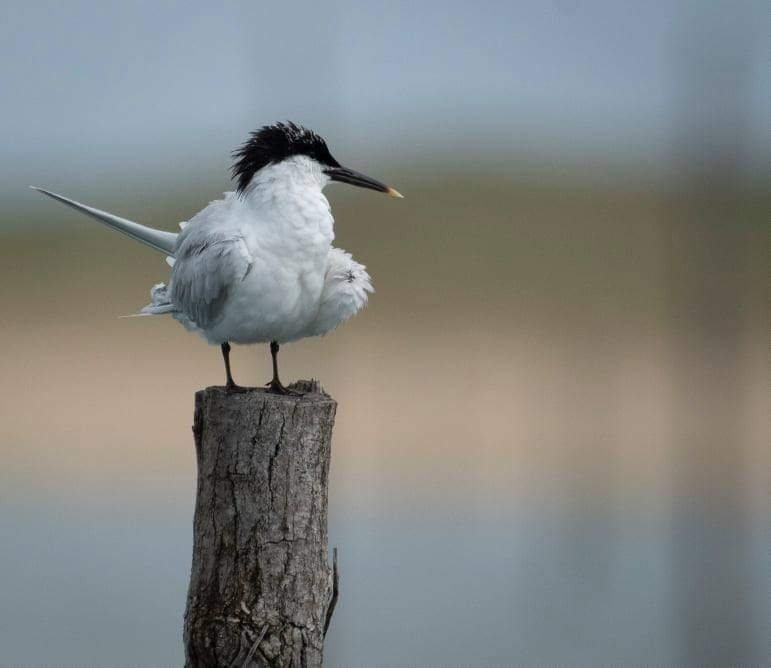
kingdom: Animalia
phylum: Chordata
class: Aves
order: Charadriiformes
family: Laridae
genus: Thalasseus
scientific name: Thalasseus sandvicensis
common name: Sandwich tern
